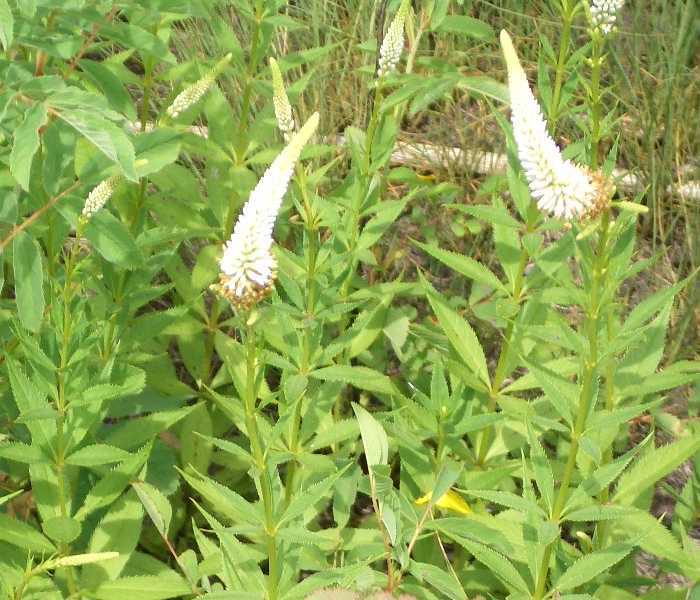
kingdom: Plantae
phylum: Tracheophyta
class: Magnoliopsida
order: Lamiales
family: Plantaginaceae
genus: Veronicastrum
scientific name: Veronicastrum virginicum
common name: Blackroot
